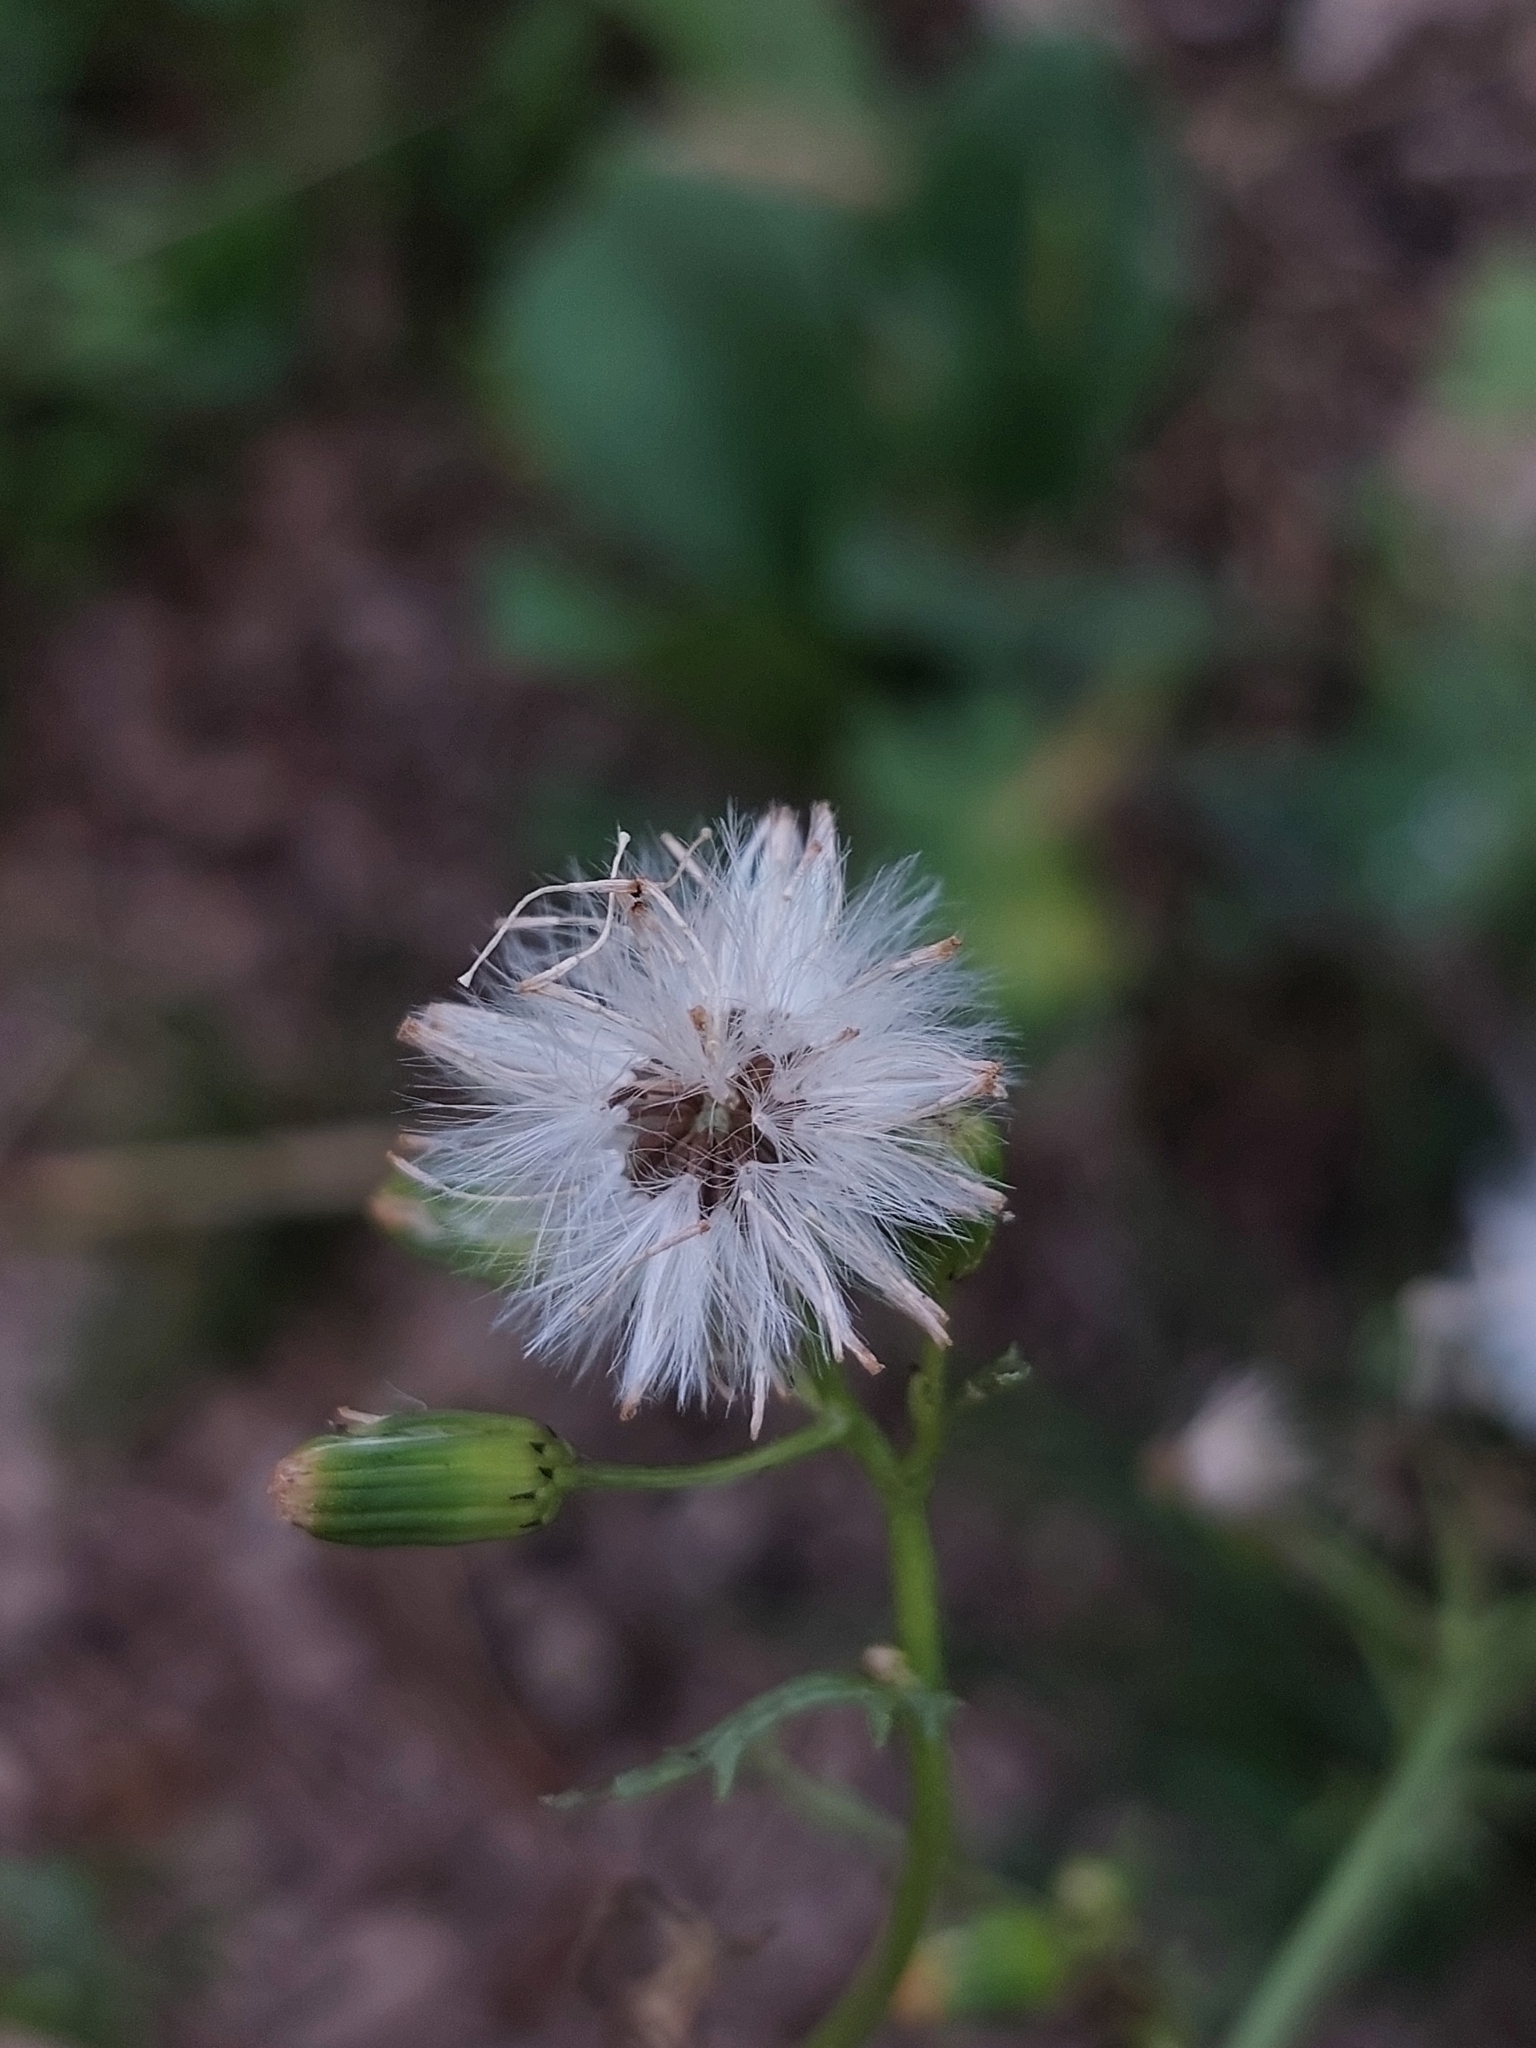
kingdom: Plantae
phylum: Tracheophyta
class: Magnoliopsida
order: Asterales
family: Asteraceae
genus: Senecio
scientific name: Senecio vulgaris
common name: Old-man-in-the-spring
